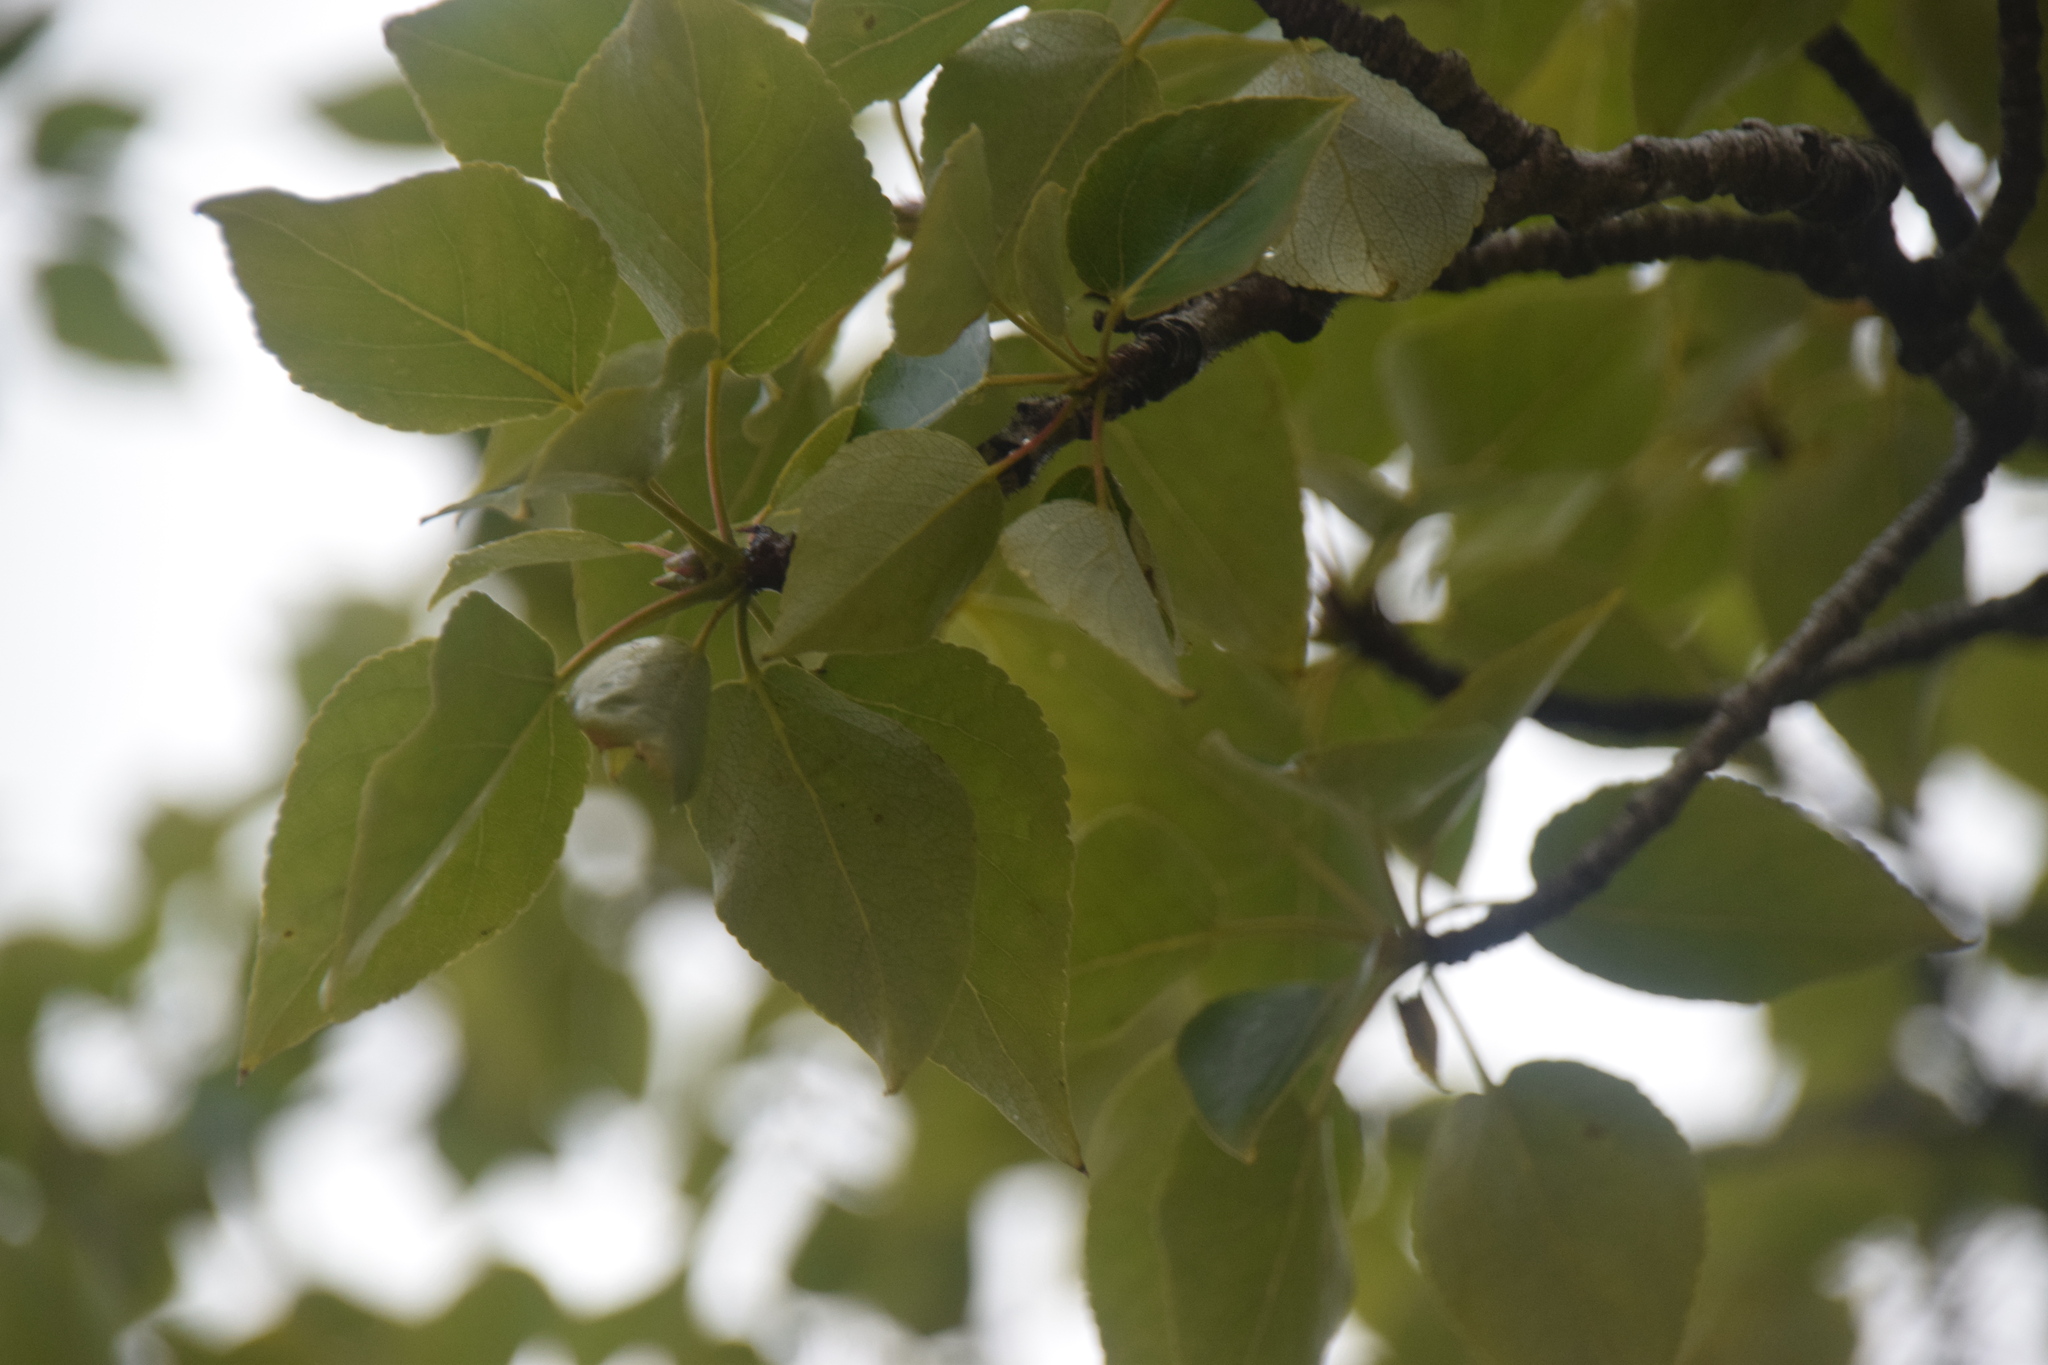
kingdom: Plantae
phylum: Tracheophyta
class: Magnoliopsida
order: Malpighiales
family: Salicaceae
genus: Populus
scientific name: Populus balsamifera
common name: Balsam poplar
